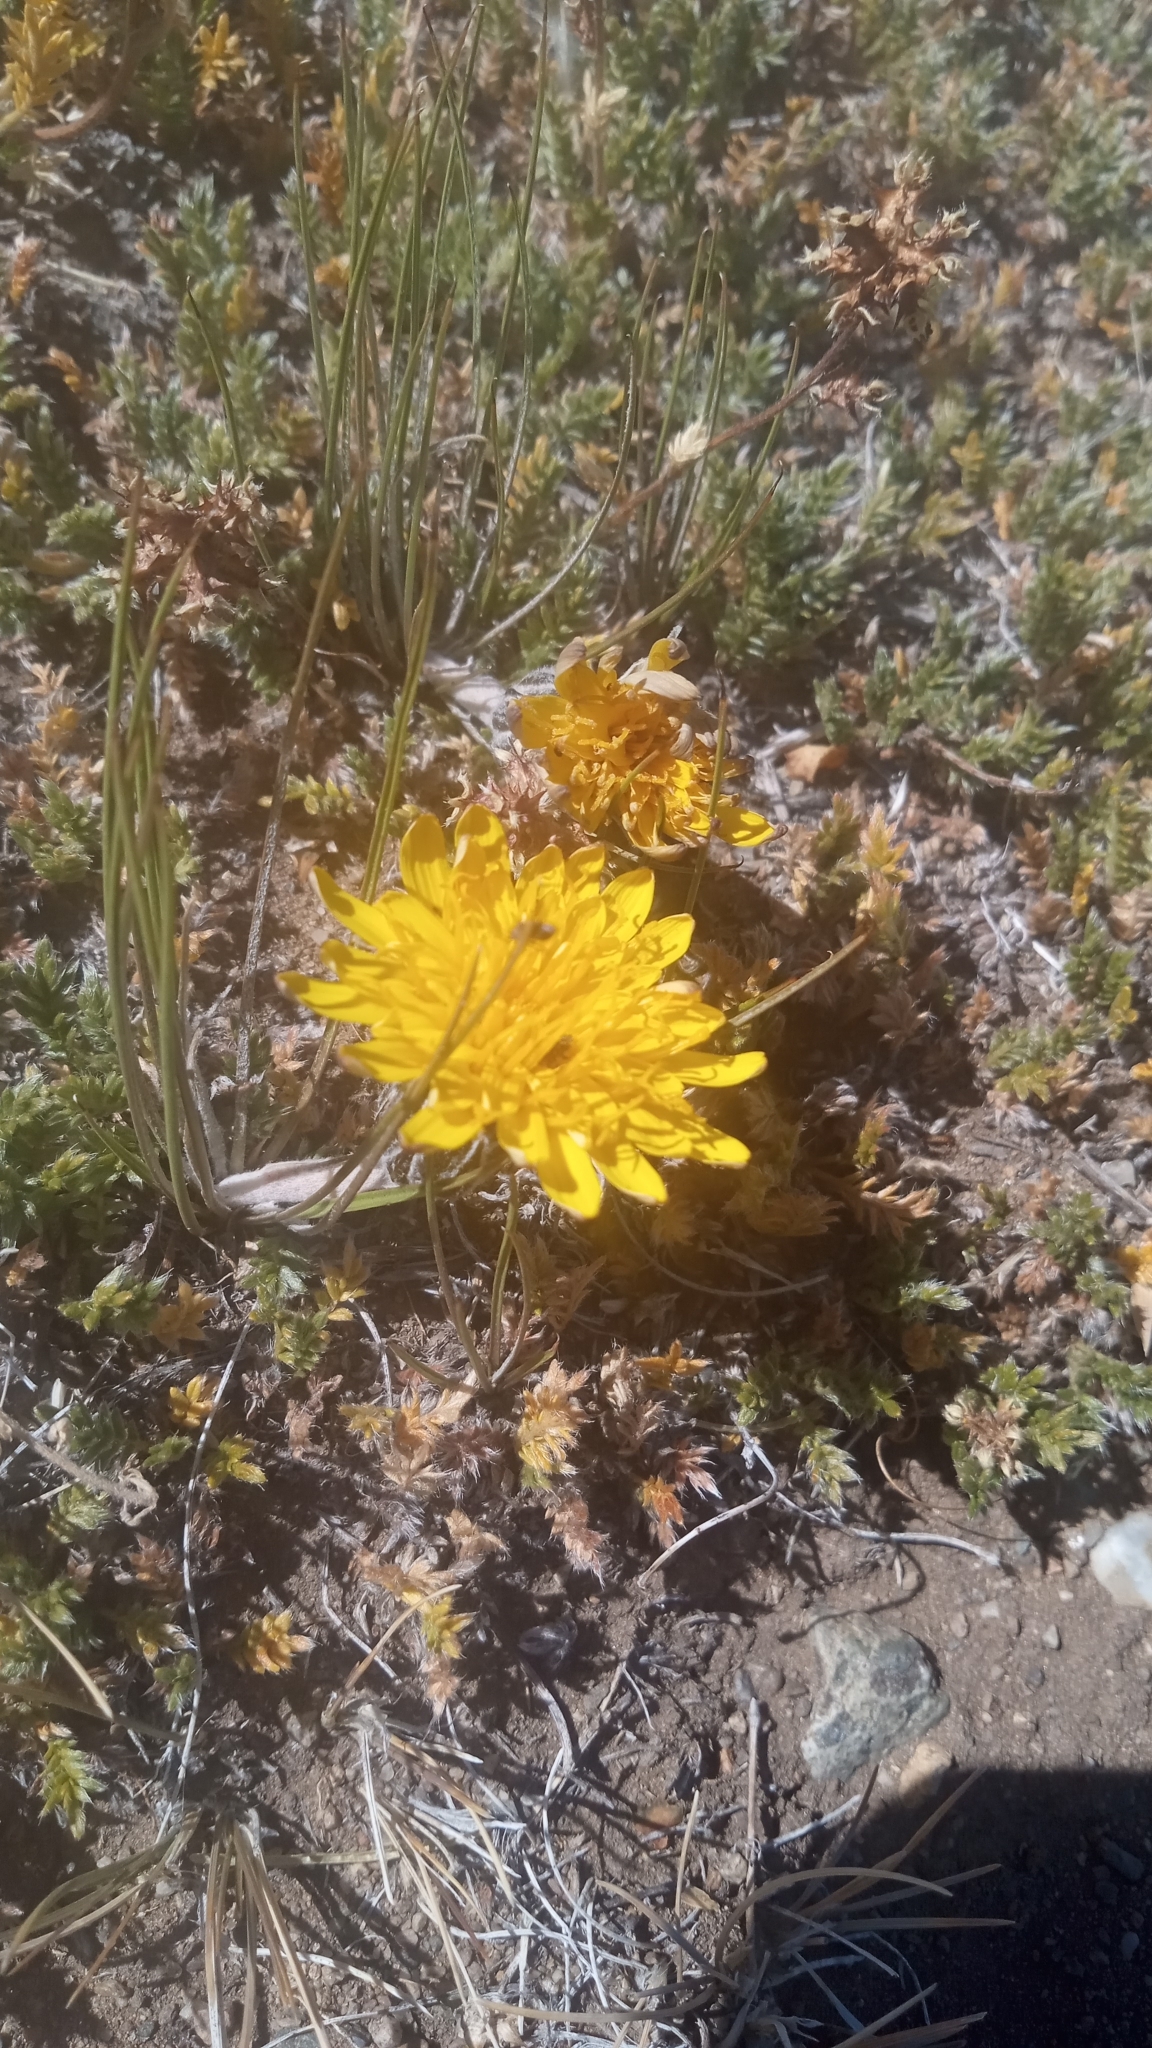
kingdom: Plantae
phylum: Tracheophyta
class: Magnoliopsida
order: Asterales
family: Asteraceae
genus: Hypochaeris
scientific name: Hypochaeris hookeri
